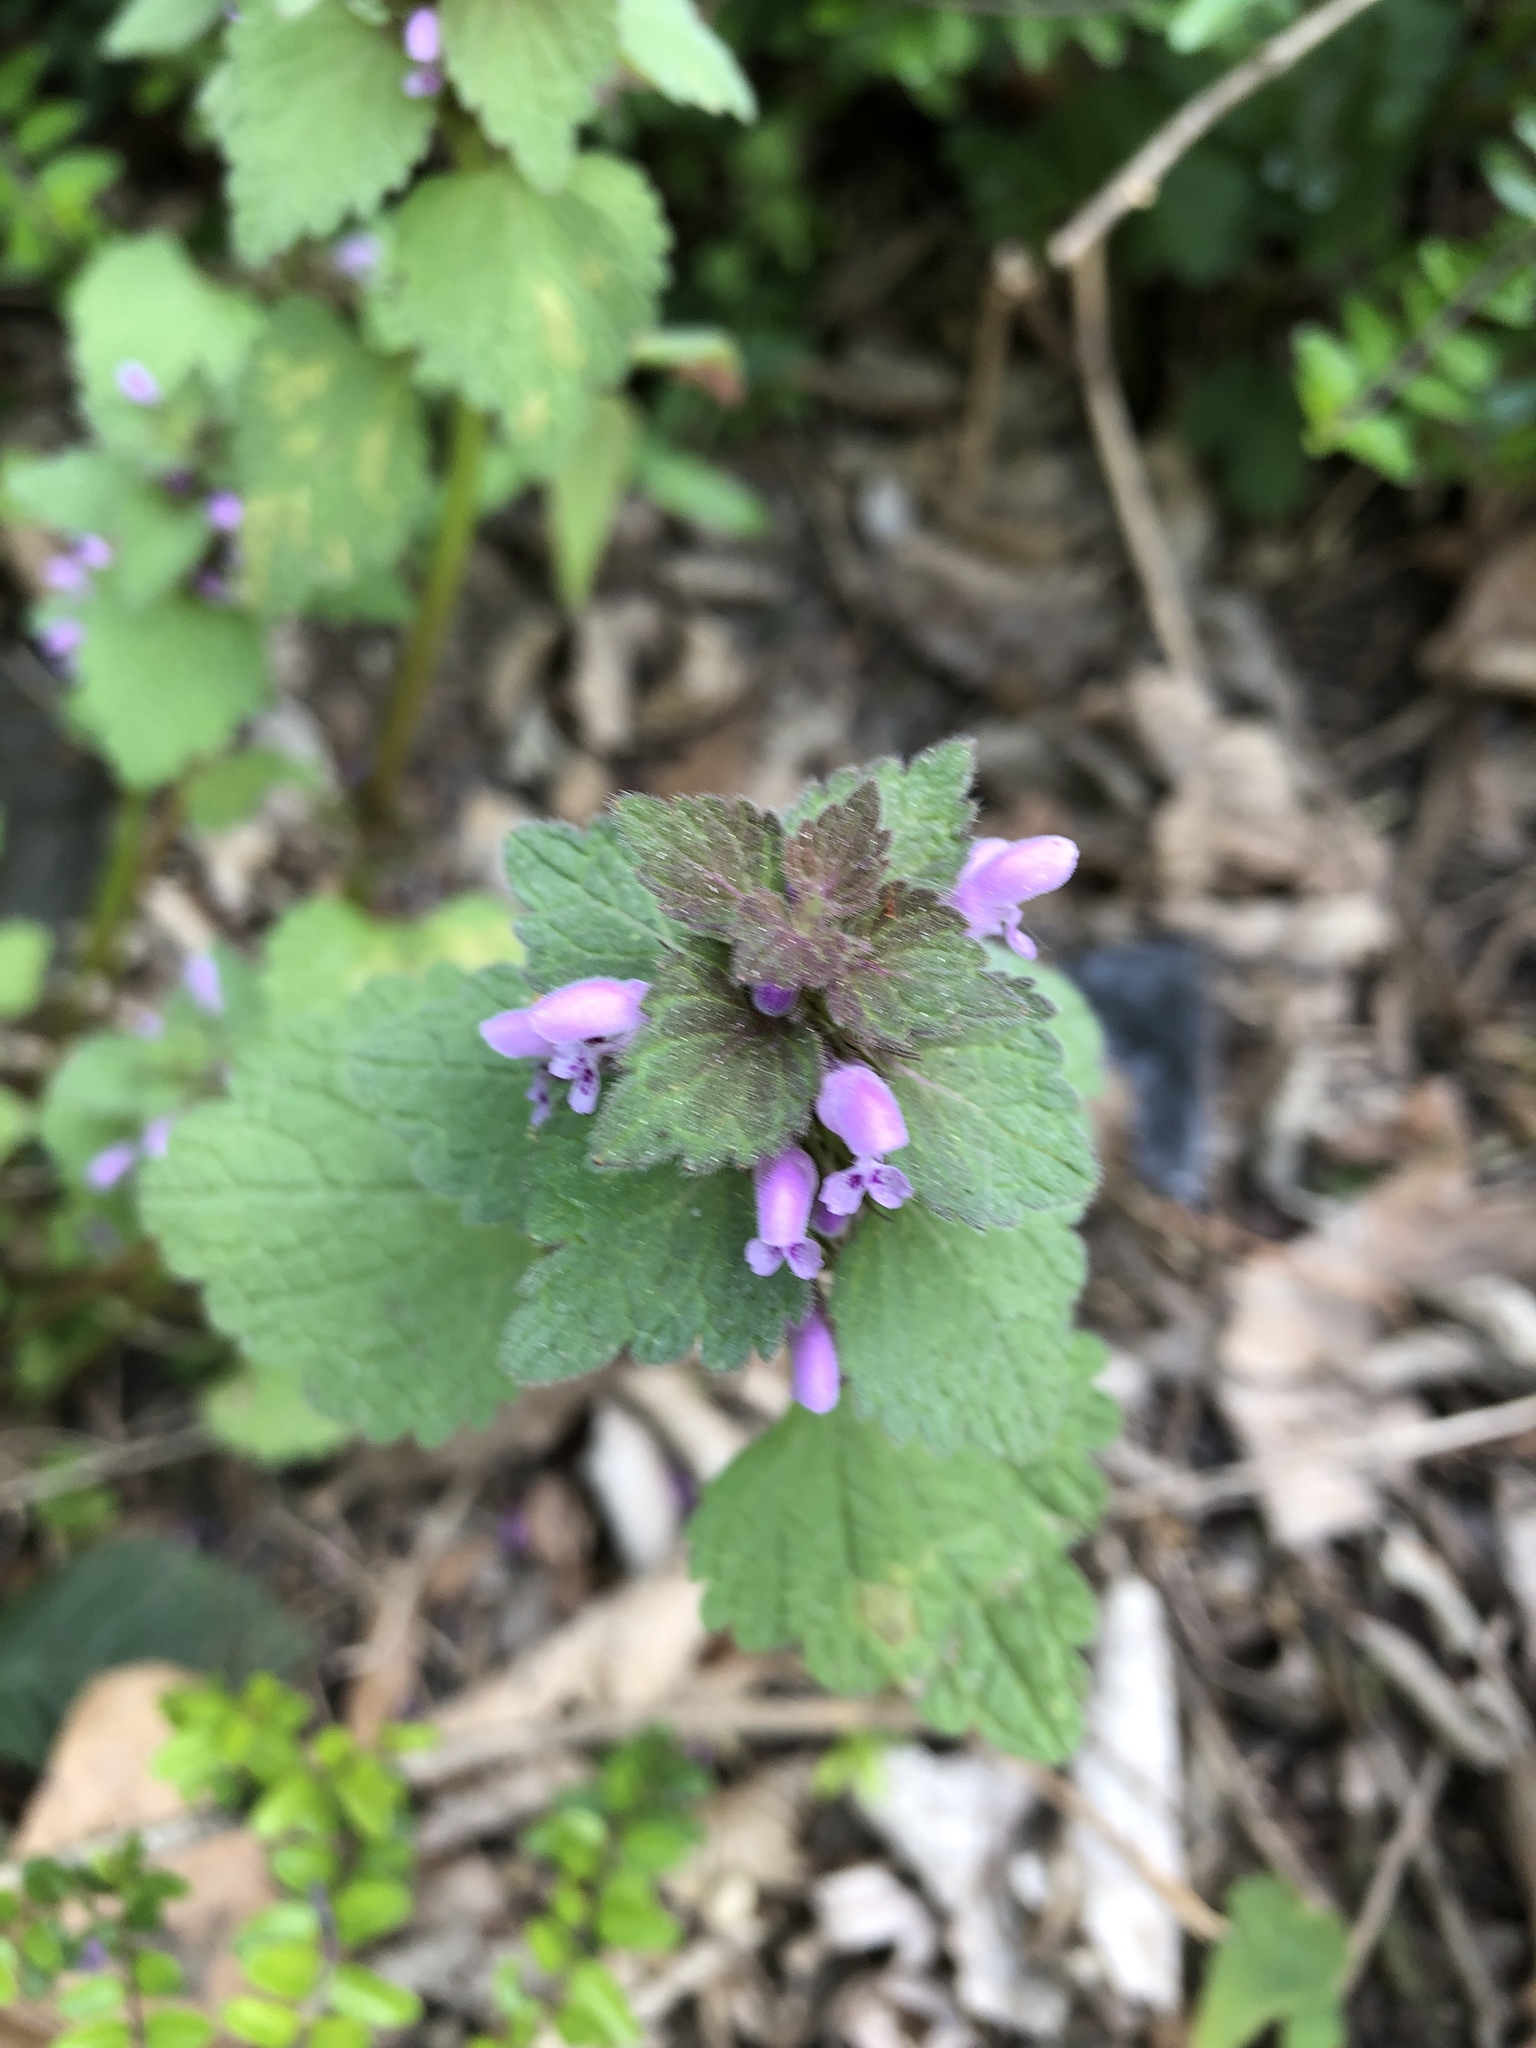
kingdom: Plantae
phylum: Tracheophyta
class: Magnoliopsida
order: Lamiales
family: Lamiaceae
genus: Lamium
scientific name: Lamium purpureum
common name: Red dead-nettle
